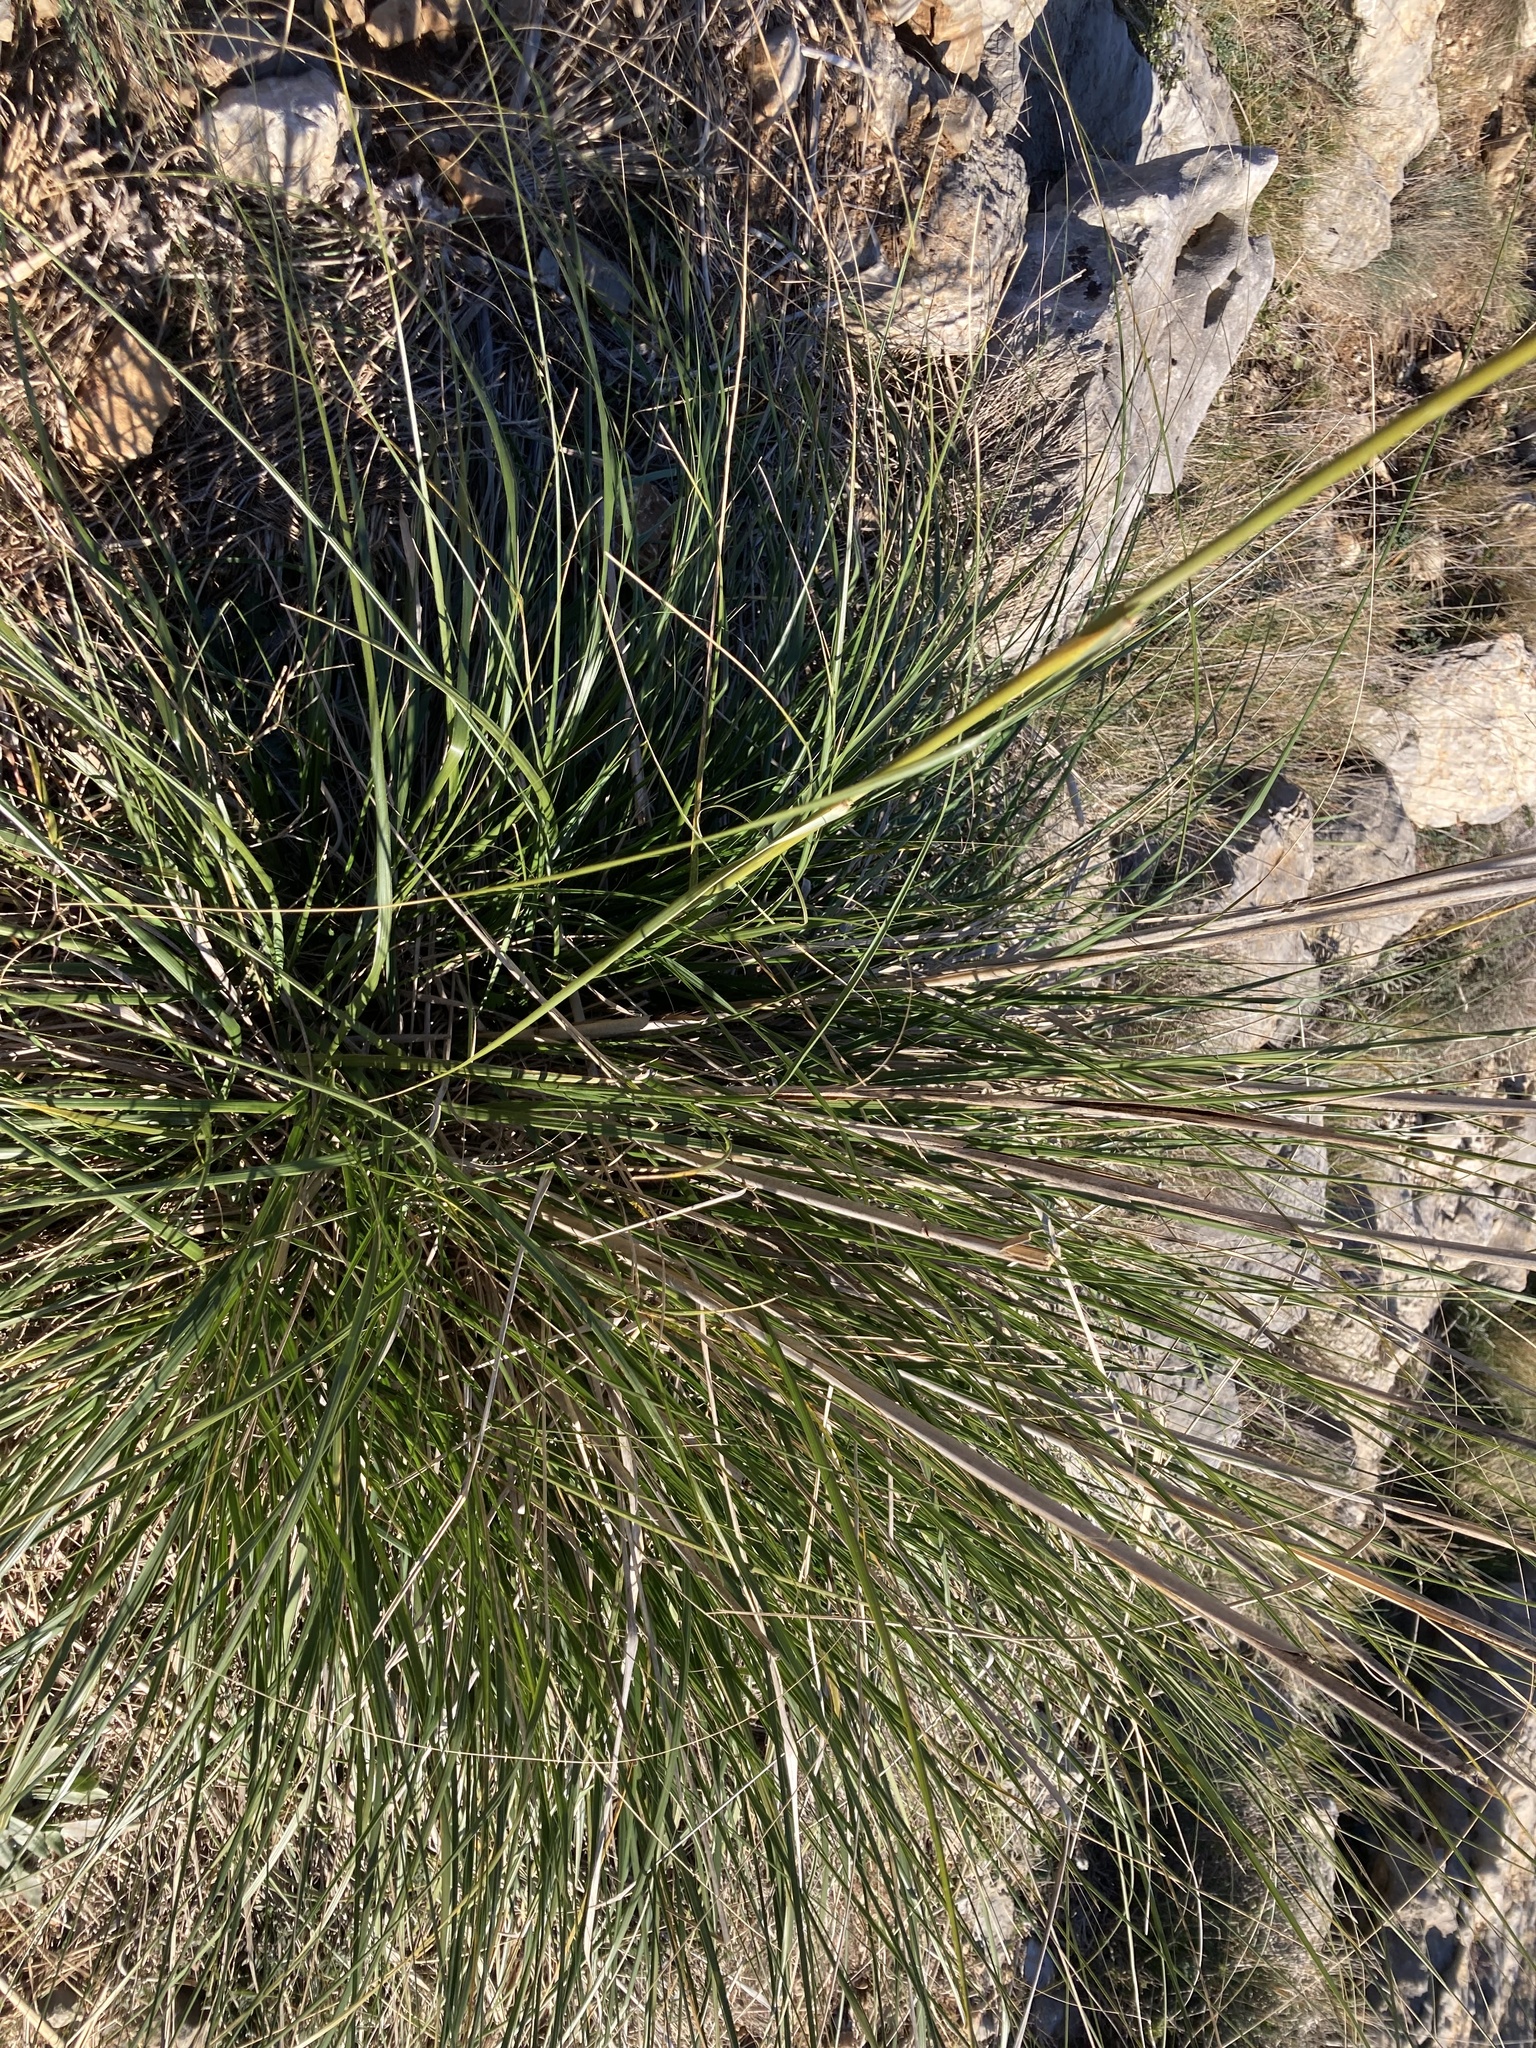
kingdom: Plantae
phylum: Tracheophyta
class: Liliopsida
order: Poales
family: Poaceae
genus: Ampelodesmos
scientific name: Ampelodesmos mauritanicus
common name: Mauritanian grass
